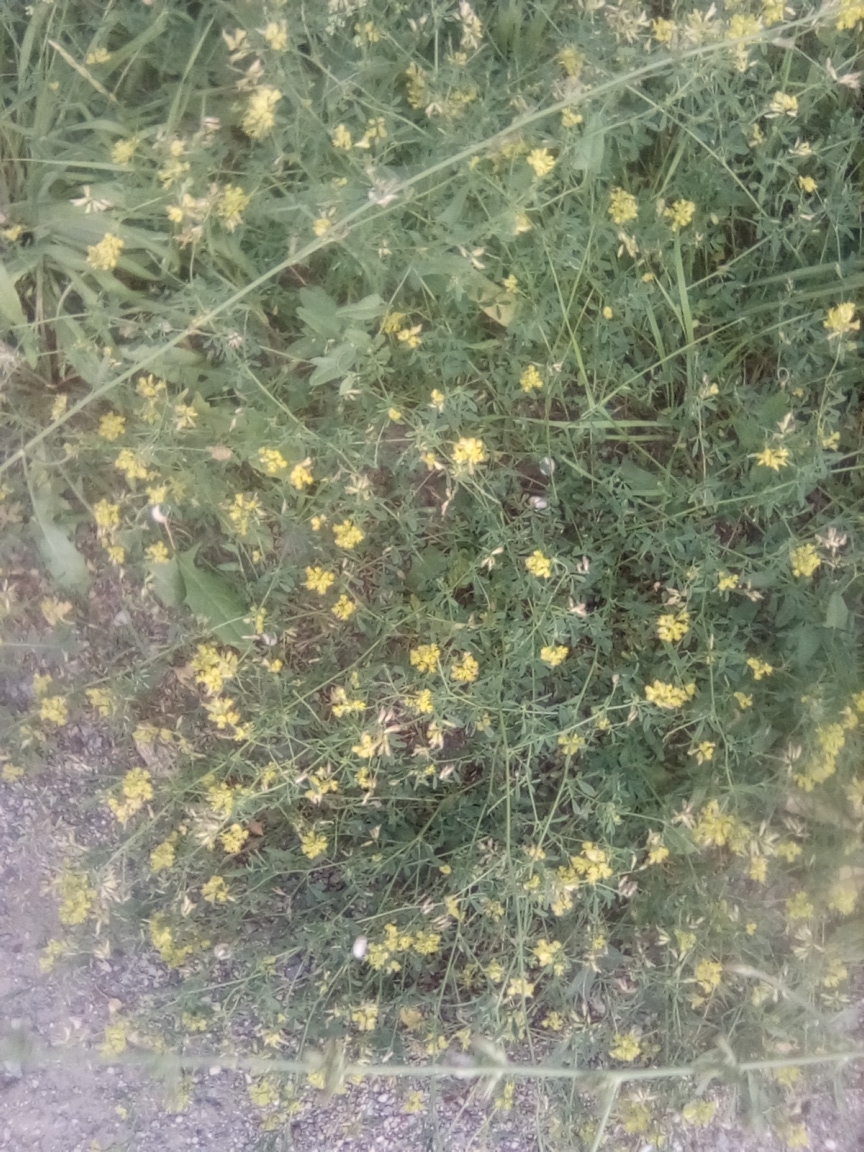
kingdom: Plantae
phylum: Tracheophyta
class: Magnoliopsida
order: Fabales
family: Fabaceae
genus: Medicago
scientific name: Medicago falcata
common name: Sickle medick
